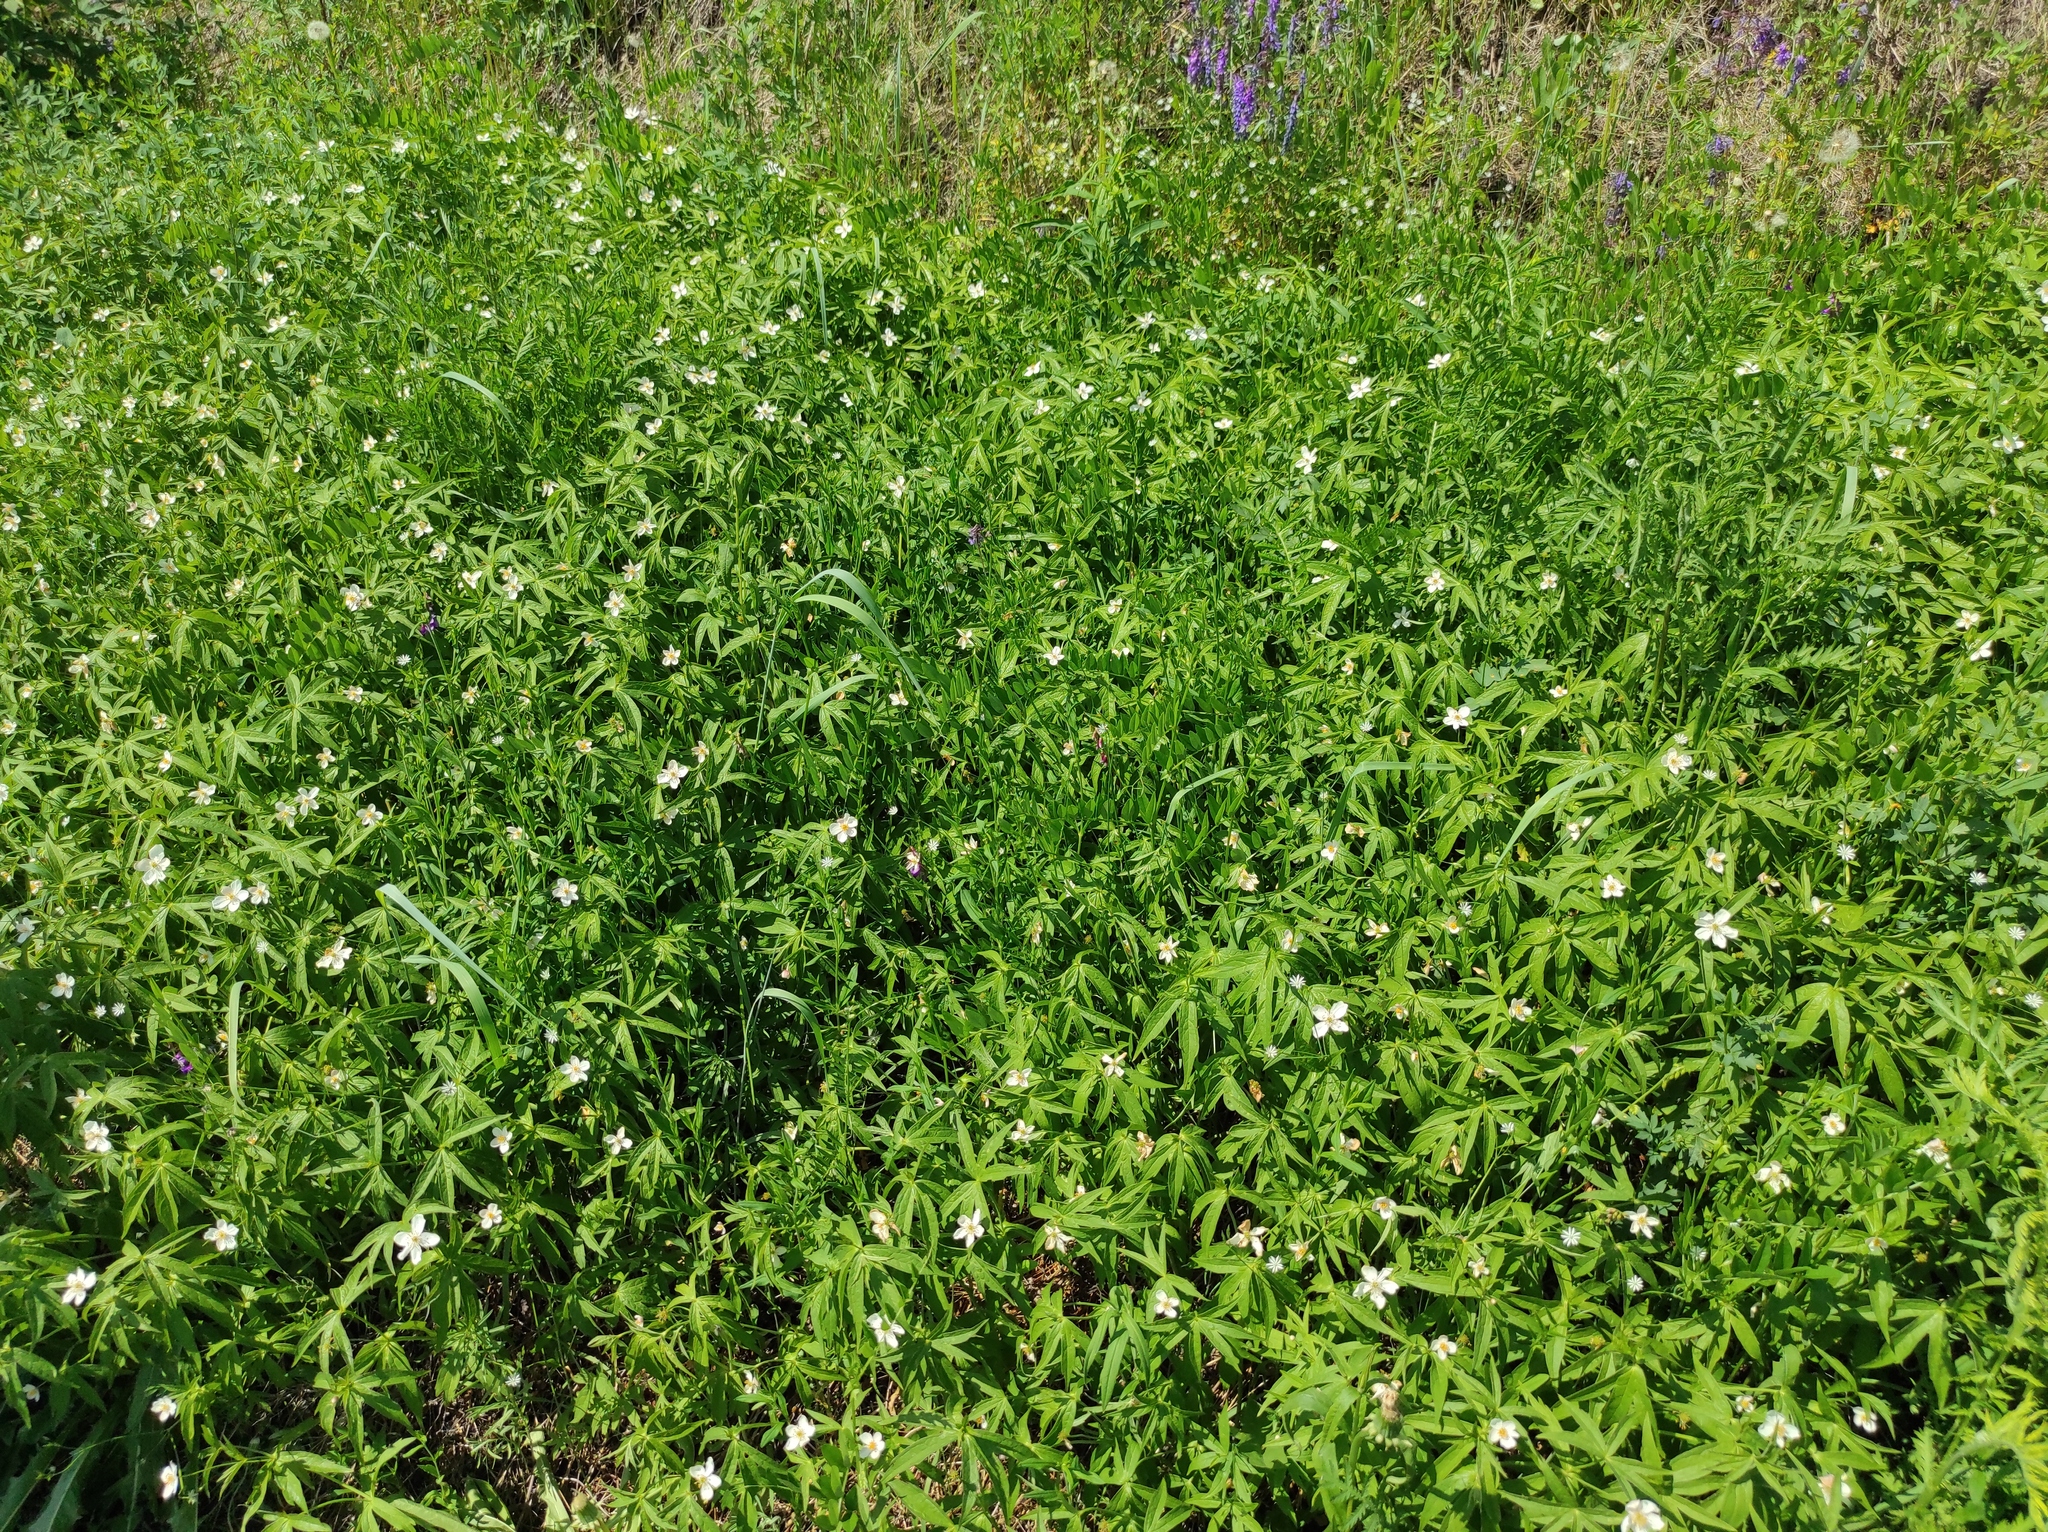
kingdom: Plantae
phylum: Tracheophyta
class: Magnoliopsida
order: Ranunculales
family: Ranunculaceae
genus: Anemonastrum
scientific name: Anemonastrum dichotomum
